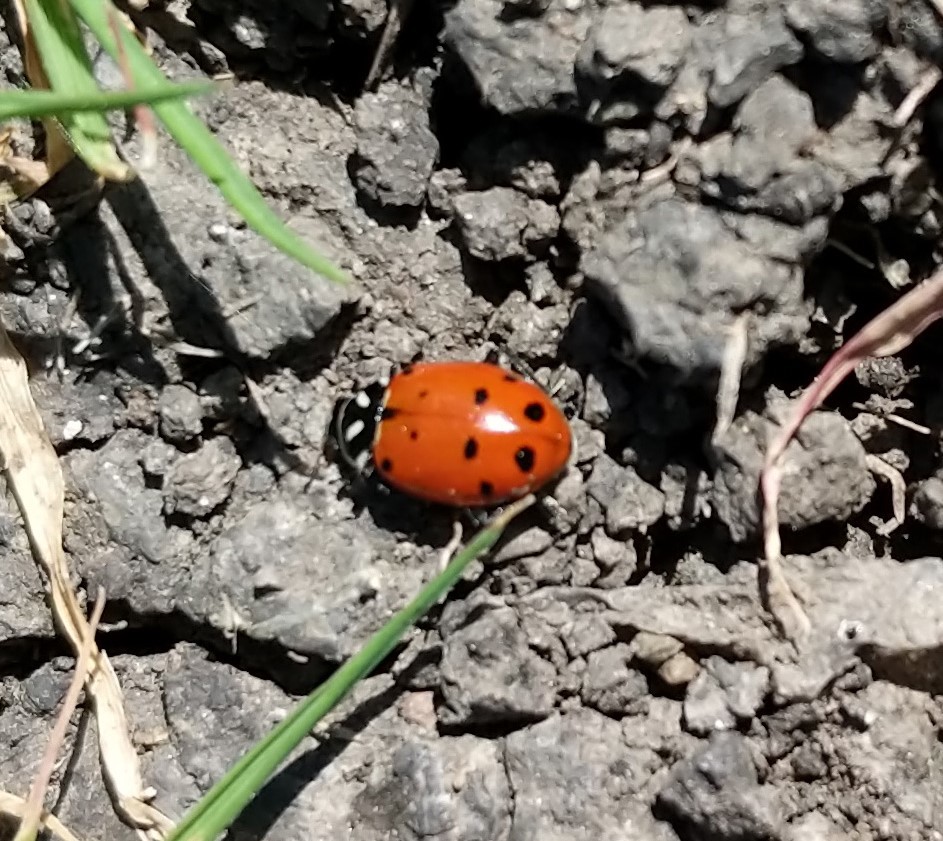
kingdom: Animalia
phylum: Arthropoda
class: Insecta
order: Coleoptera
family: Coccinellidae
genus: Hippodamia
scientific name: Hippodamia convergens
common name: Convergent lady beetle
